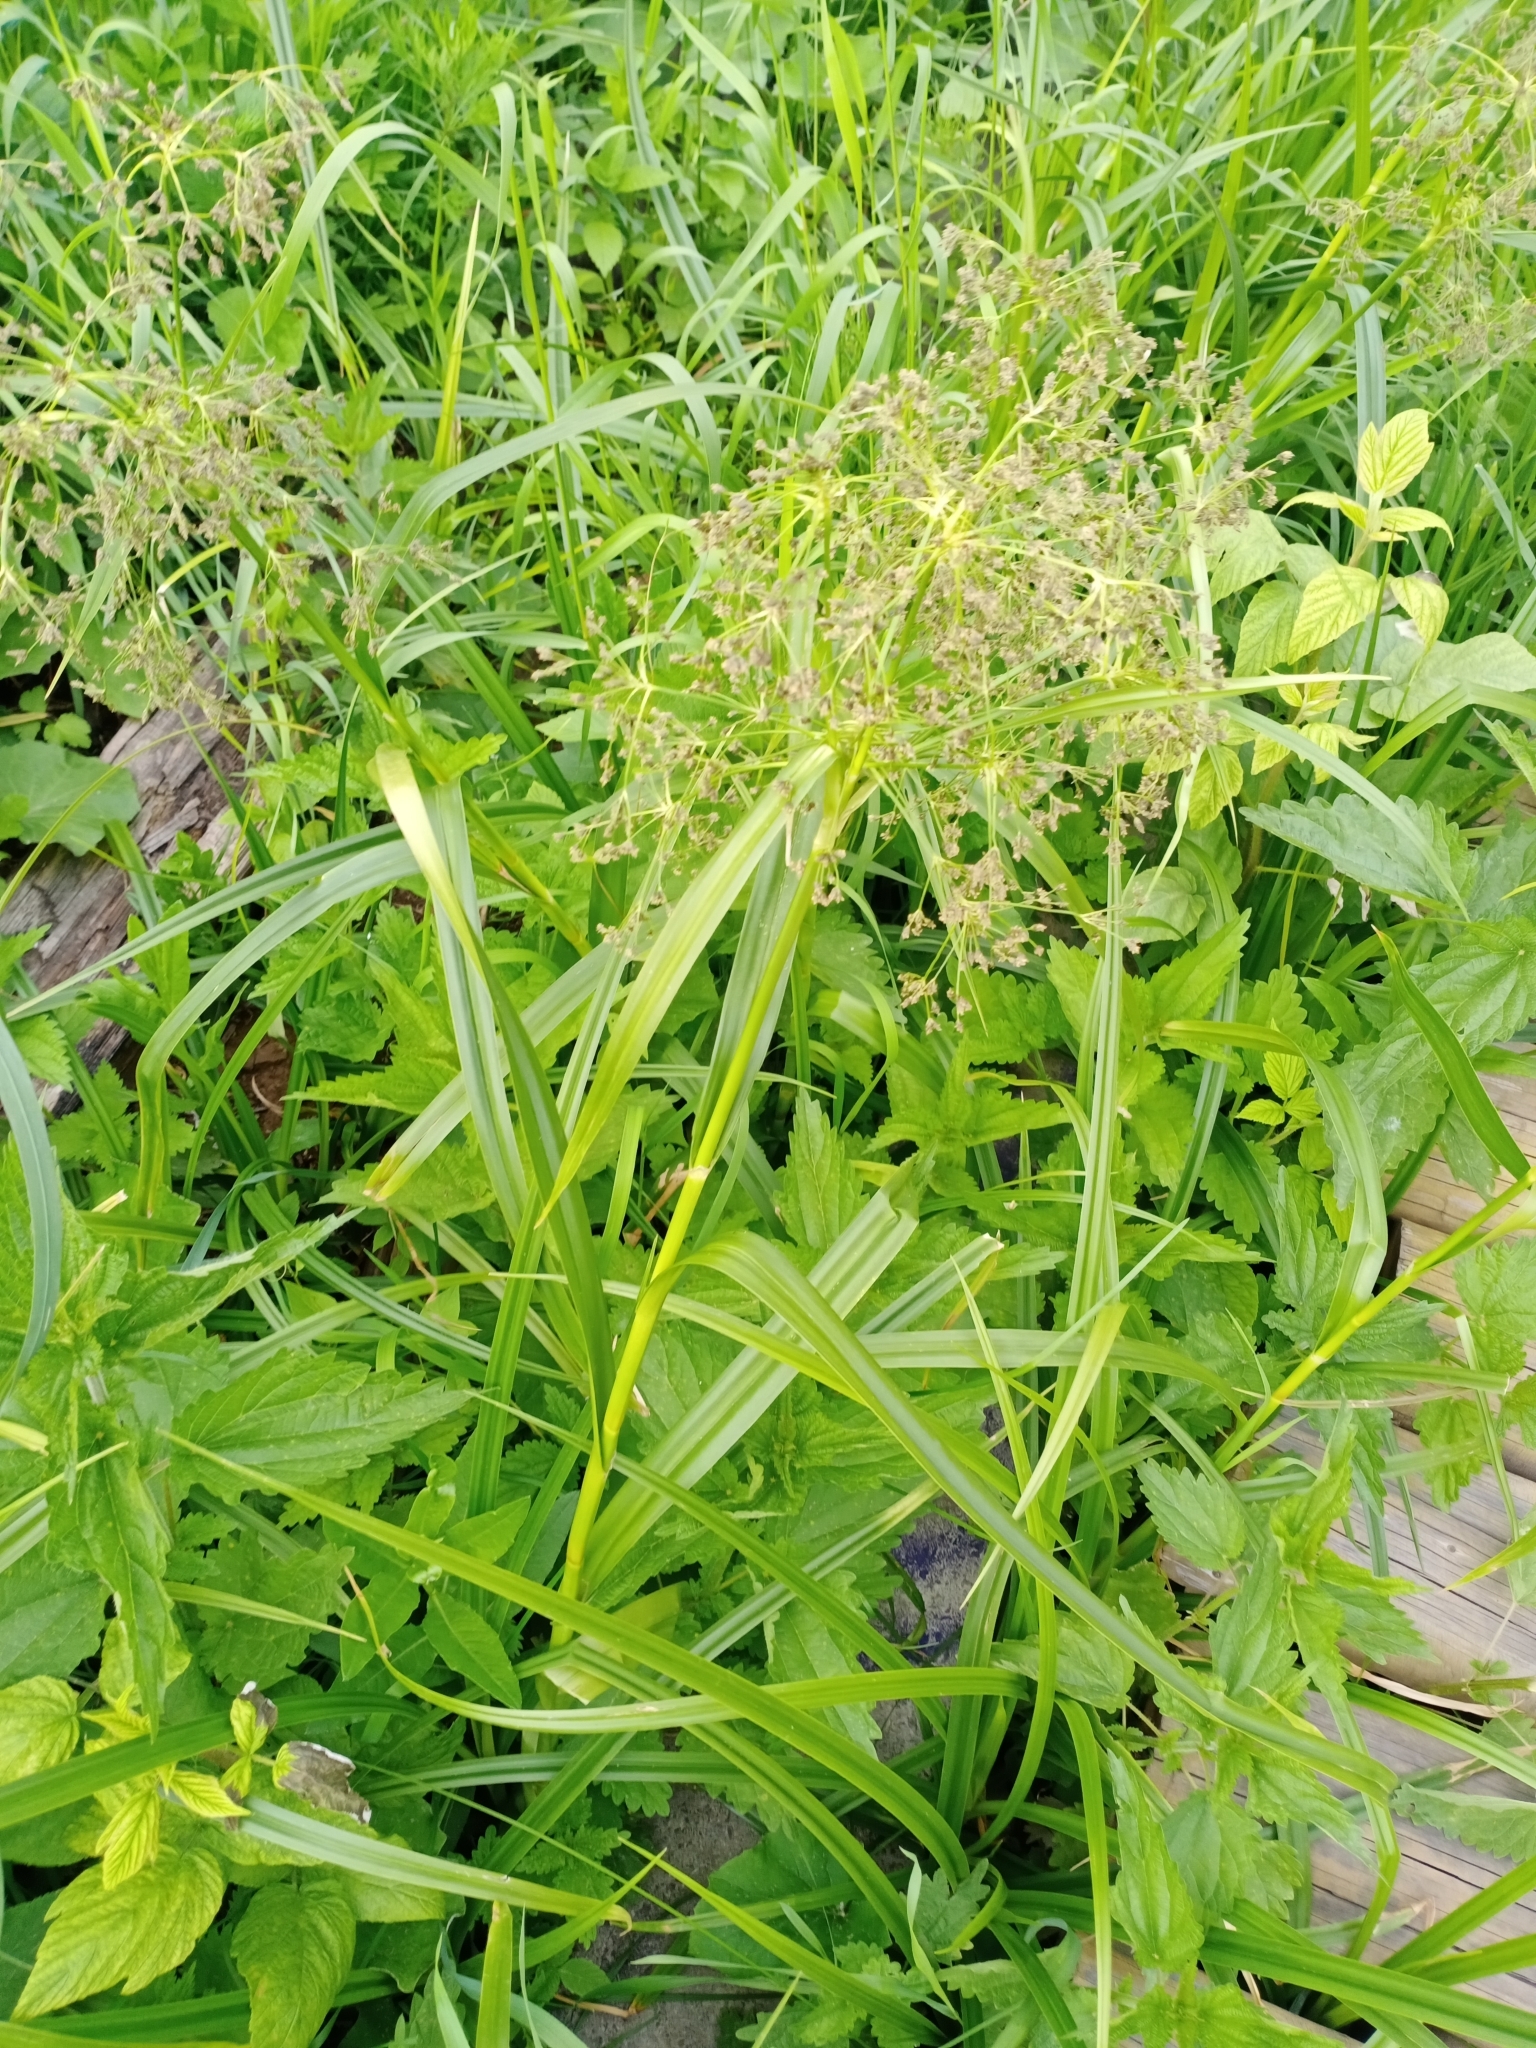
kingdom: Plantae
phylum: Tracheophyta
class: Liliopsida
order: Poales
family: Cyperaceae
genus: Scirpus
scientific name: Scirpus sylvaticus
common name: Wood club-rush
